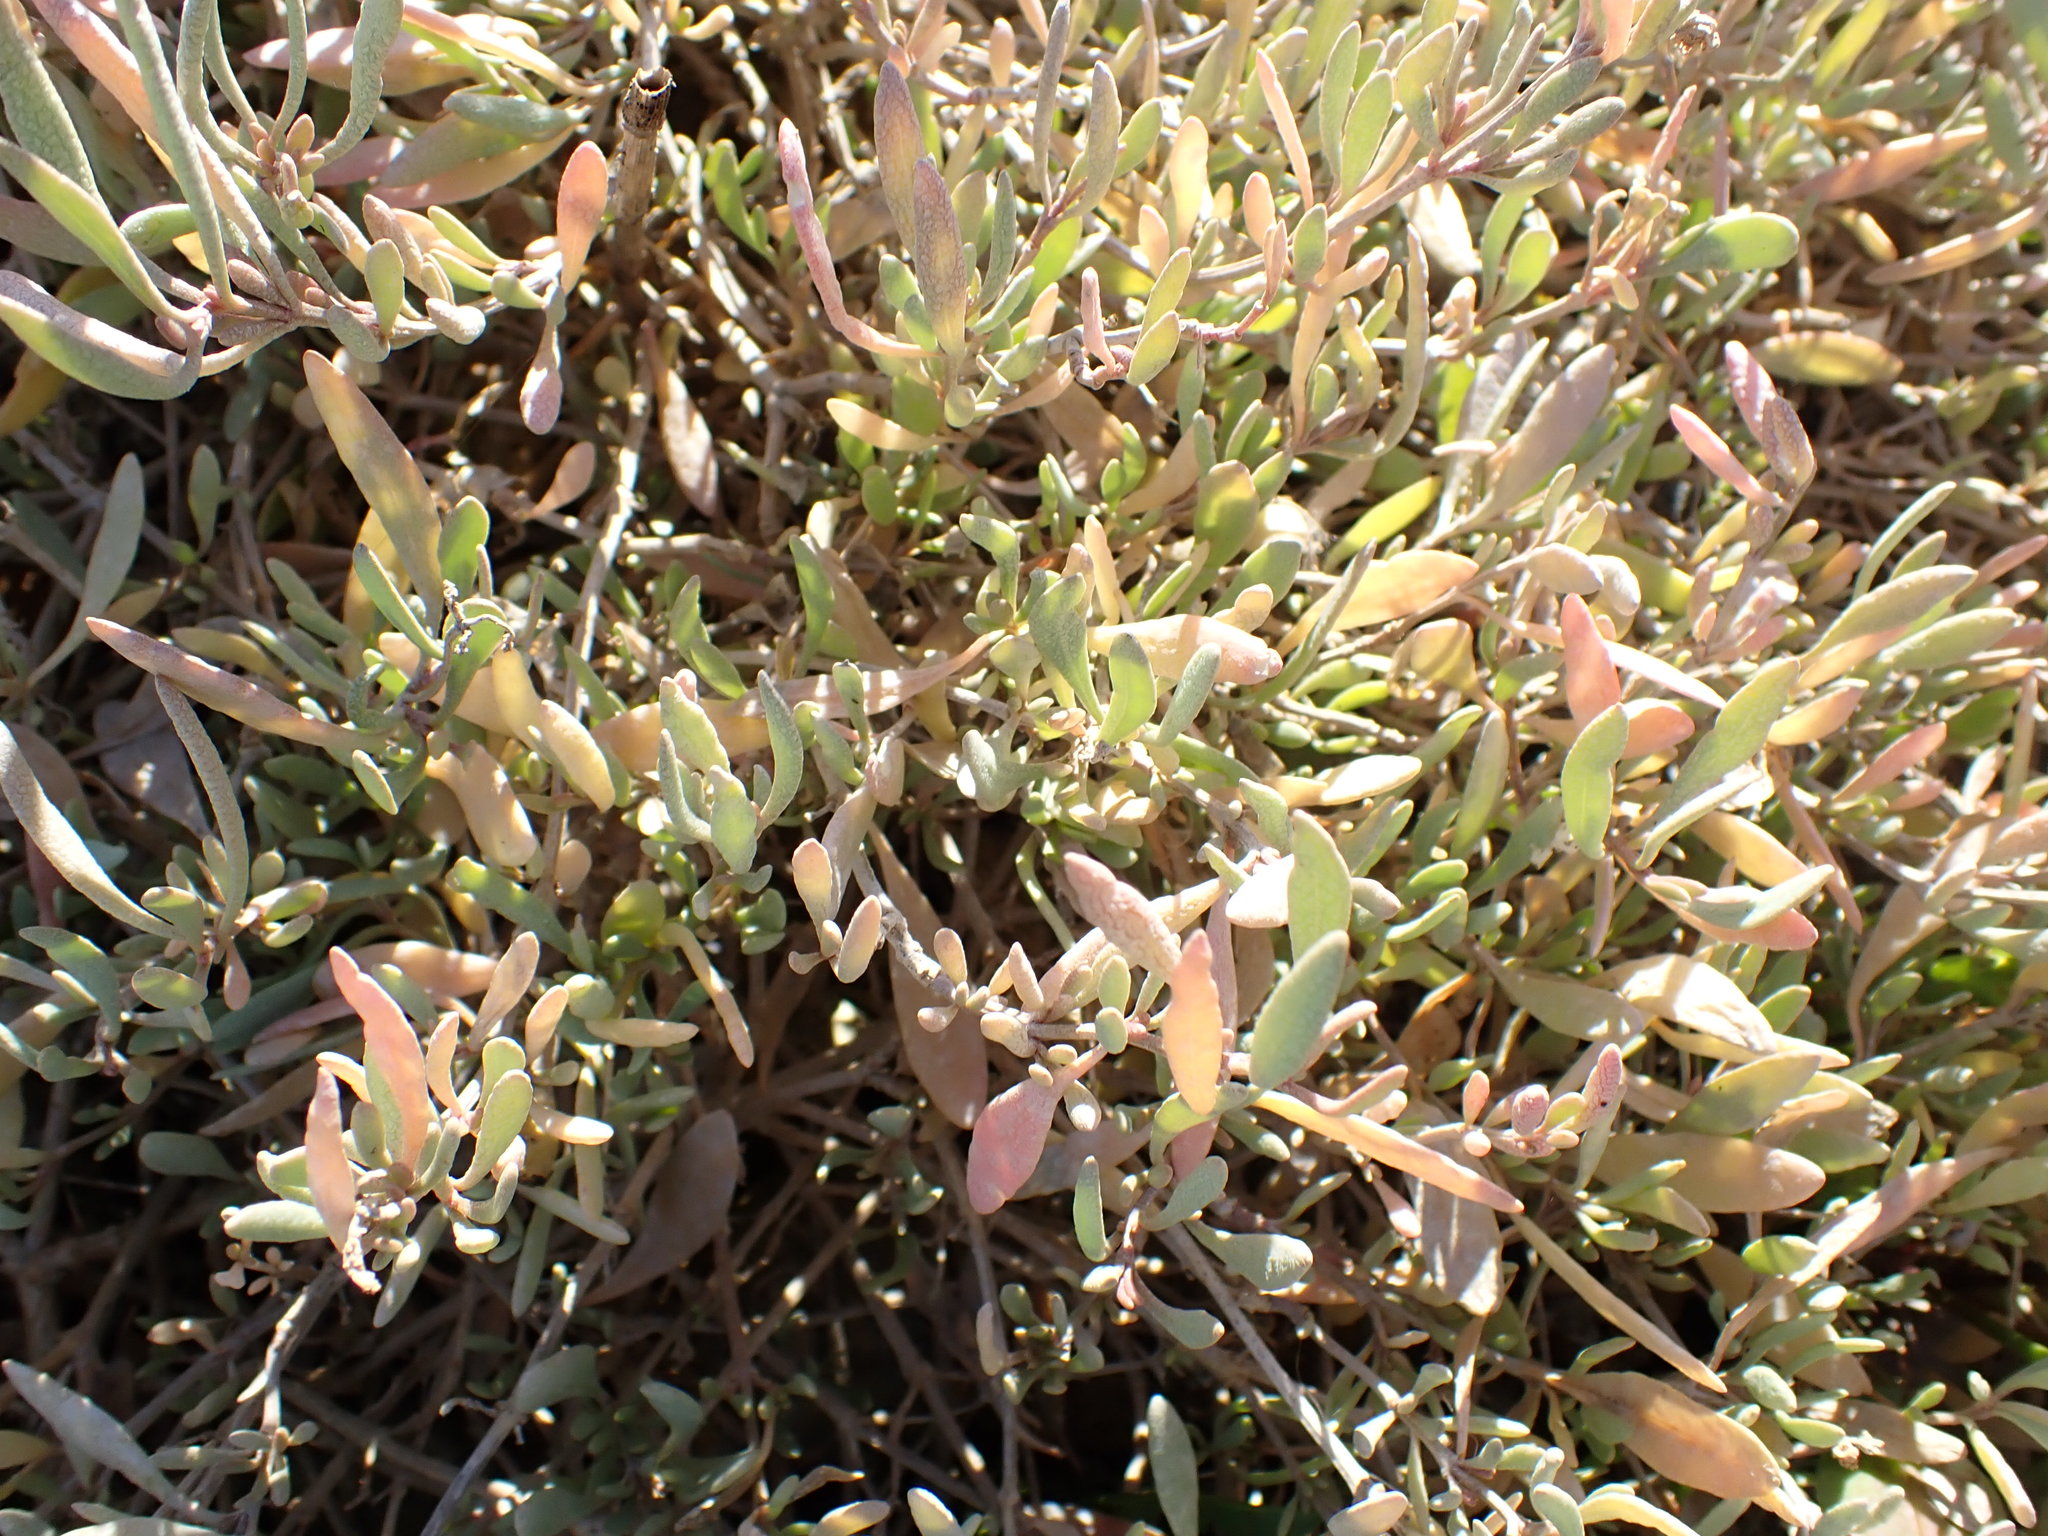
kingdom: Plantae
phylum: Tracheophyta
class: Magnoliopsida
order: Caryophyllales
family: Amaranthaceae
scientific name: Amaranthaceae
